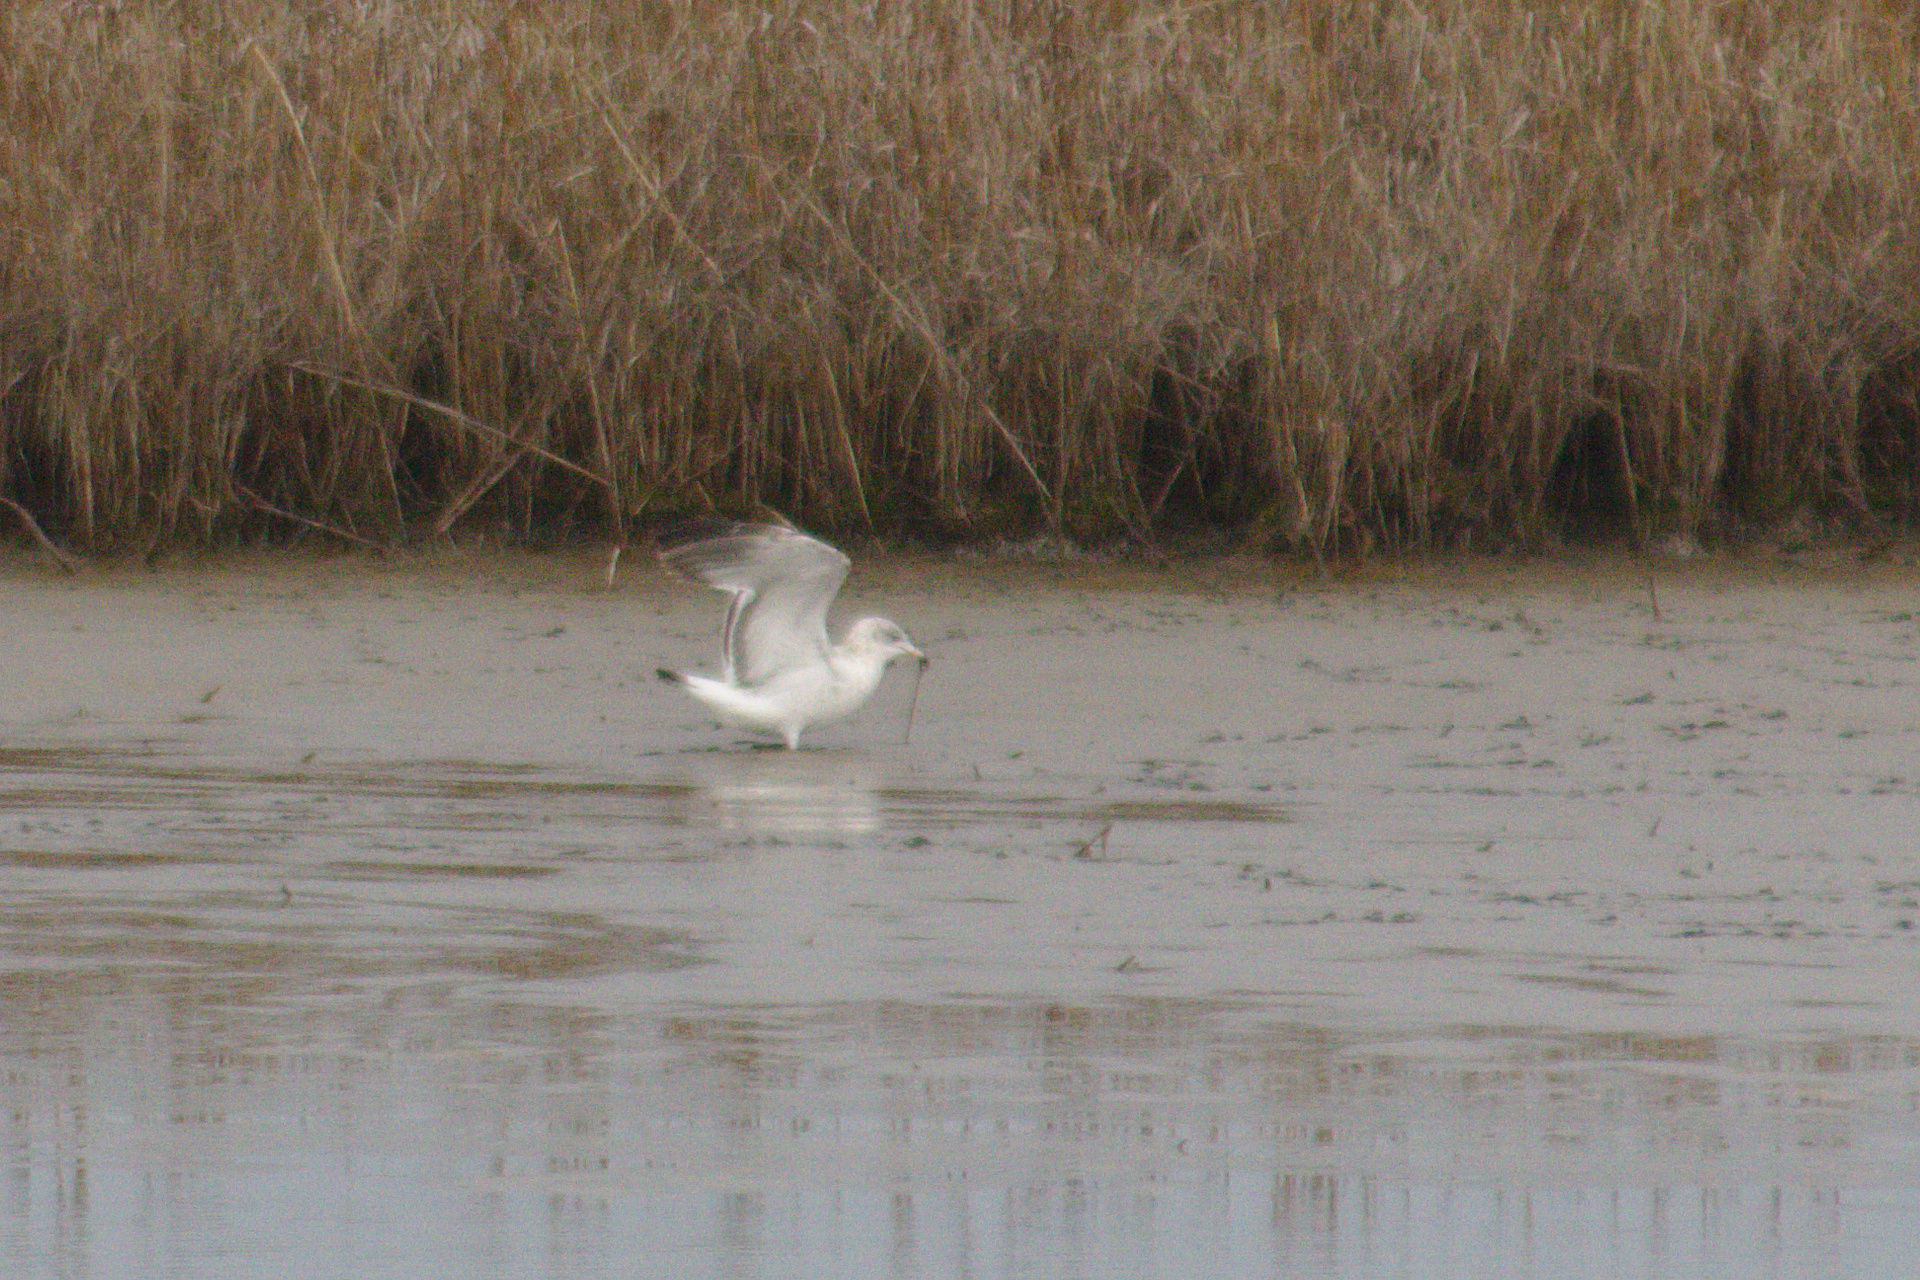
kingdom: Animalia
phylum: Chordata
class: Aves
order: Charadriiformes
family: Laridae
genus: Larus
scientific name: Larus delawarensis
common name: Ring-billed gull
